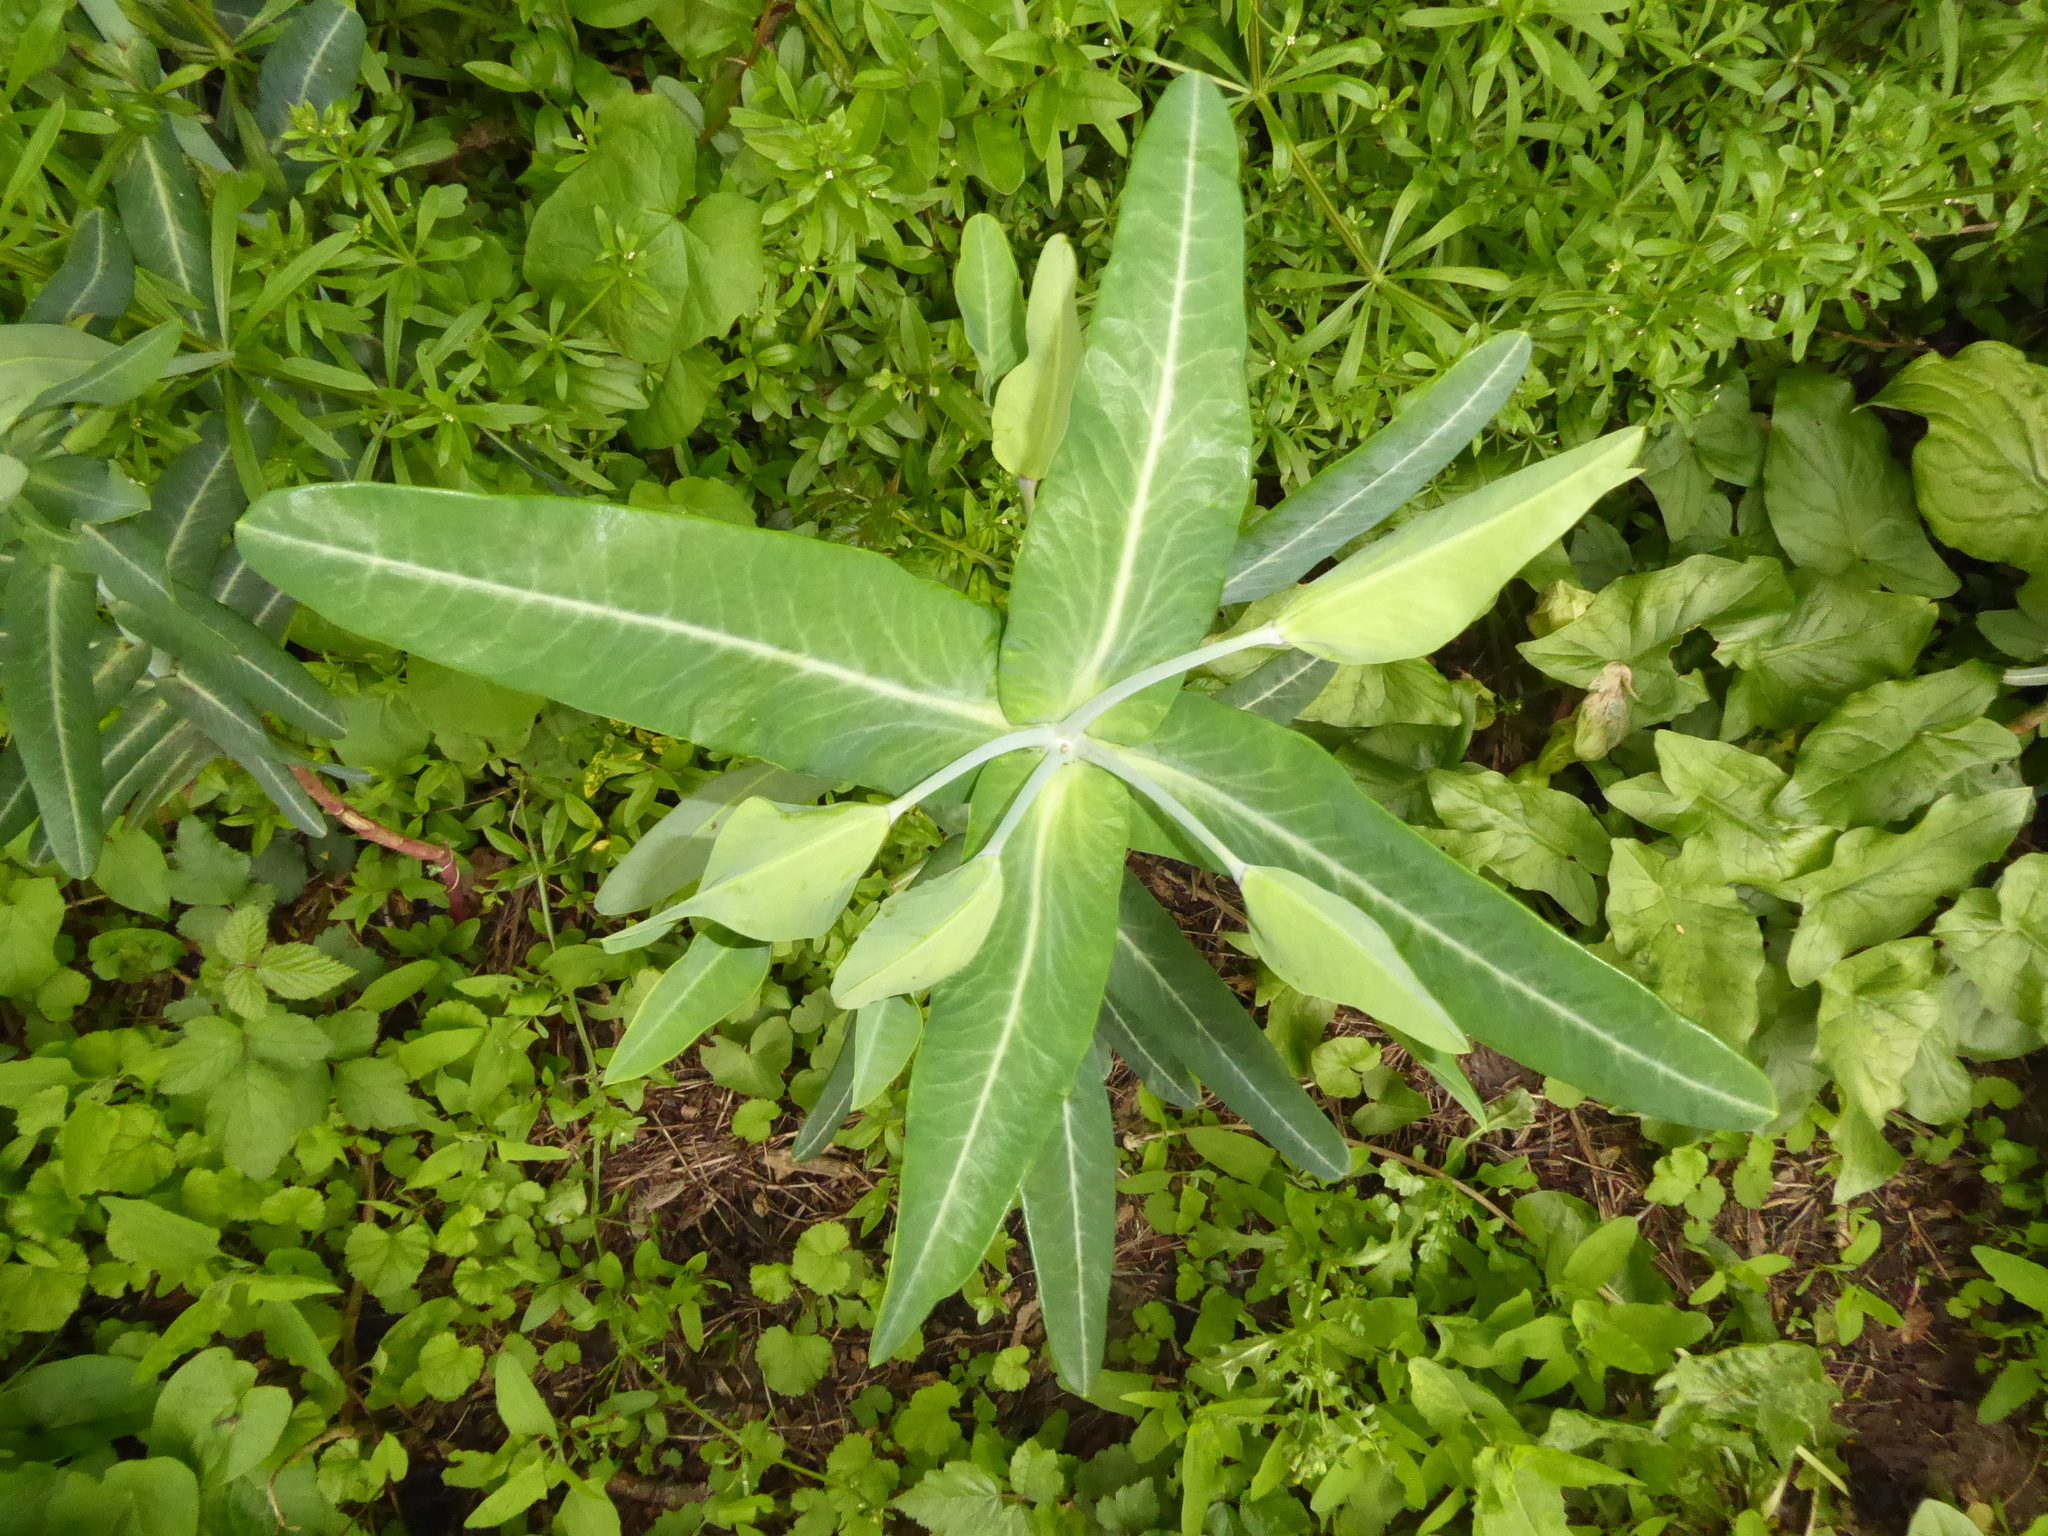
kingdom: Plantae
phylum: Tracheophyta
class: Magnoliopsida
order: Malpighiales
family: Euphorbiaceae
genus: Euphorbia
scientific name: Euphorbia lathyris
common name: Caper spurge
